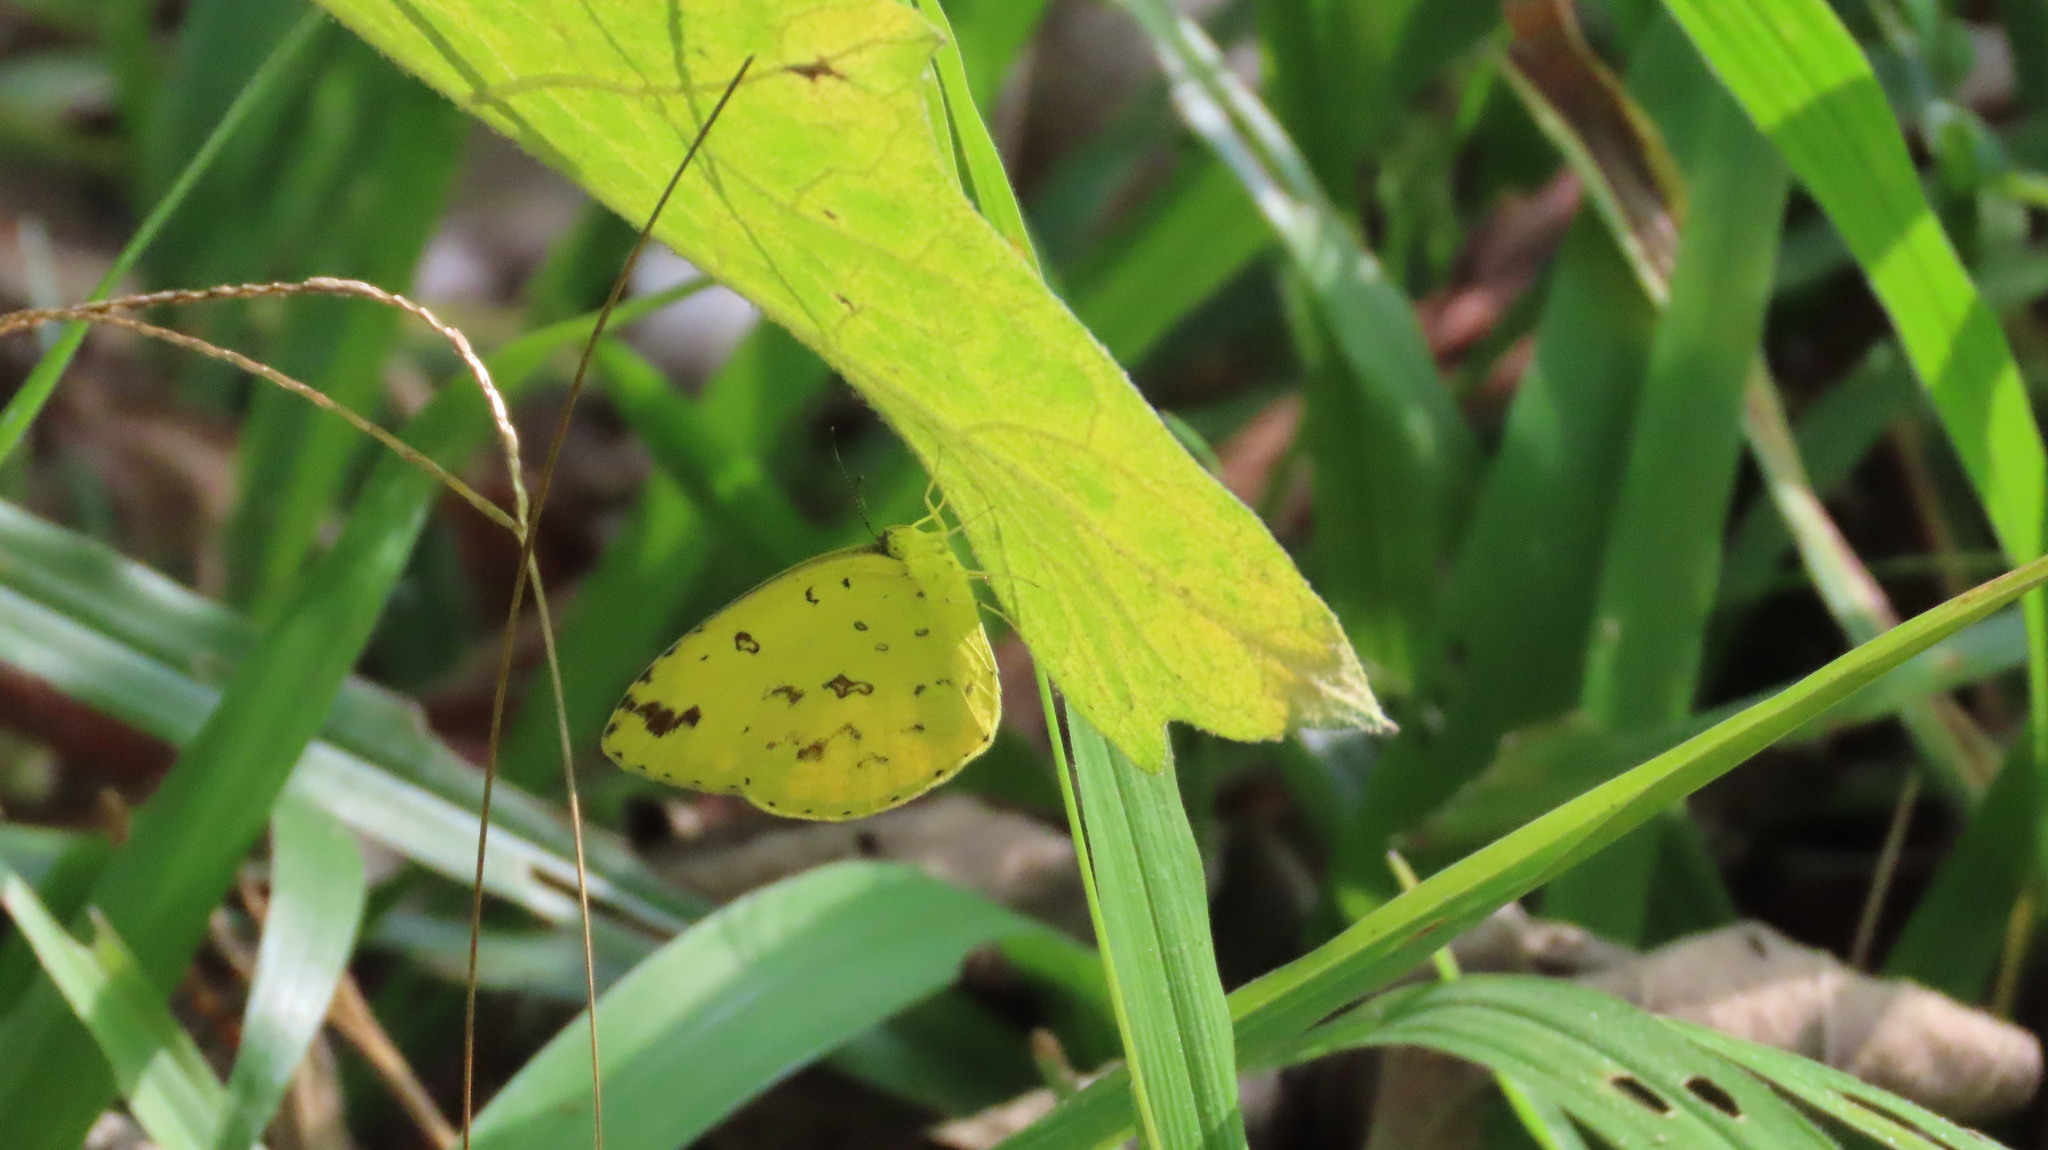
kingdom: Animalia
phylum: Arthropoda
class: Insecta
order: Lepidoptera
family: Pieridae
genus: Eurema
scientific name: Eurema hecabe
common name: Pale grass yellow
